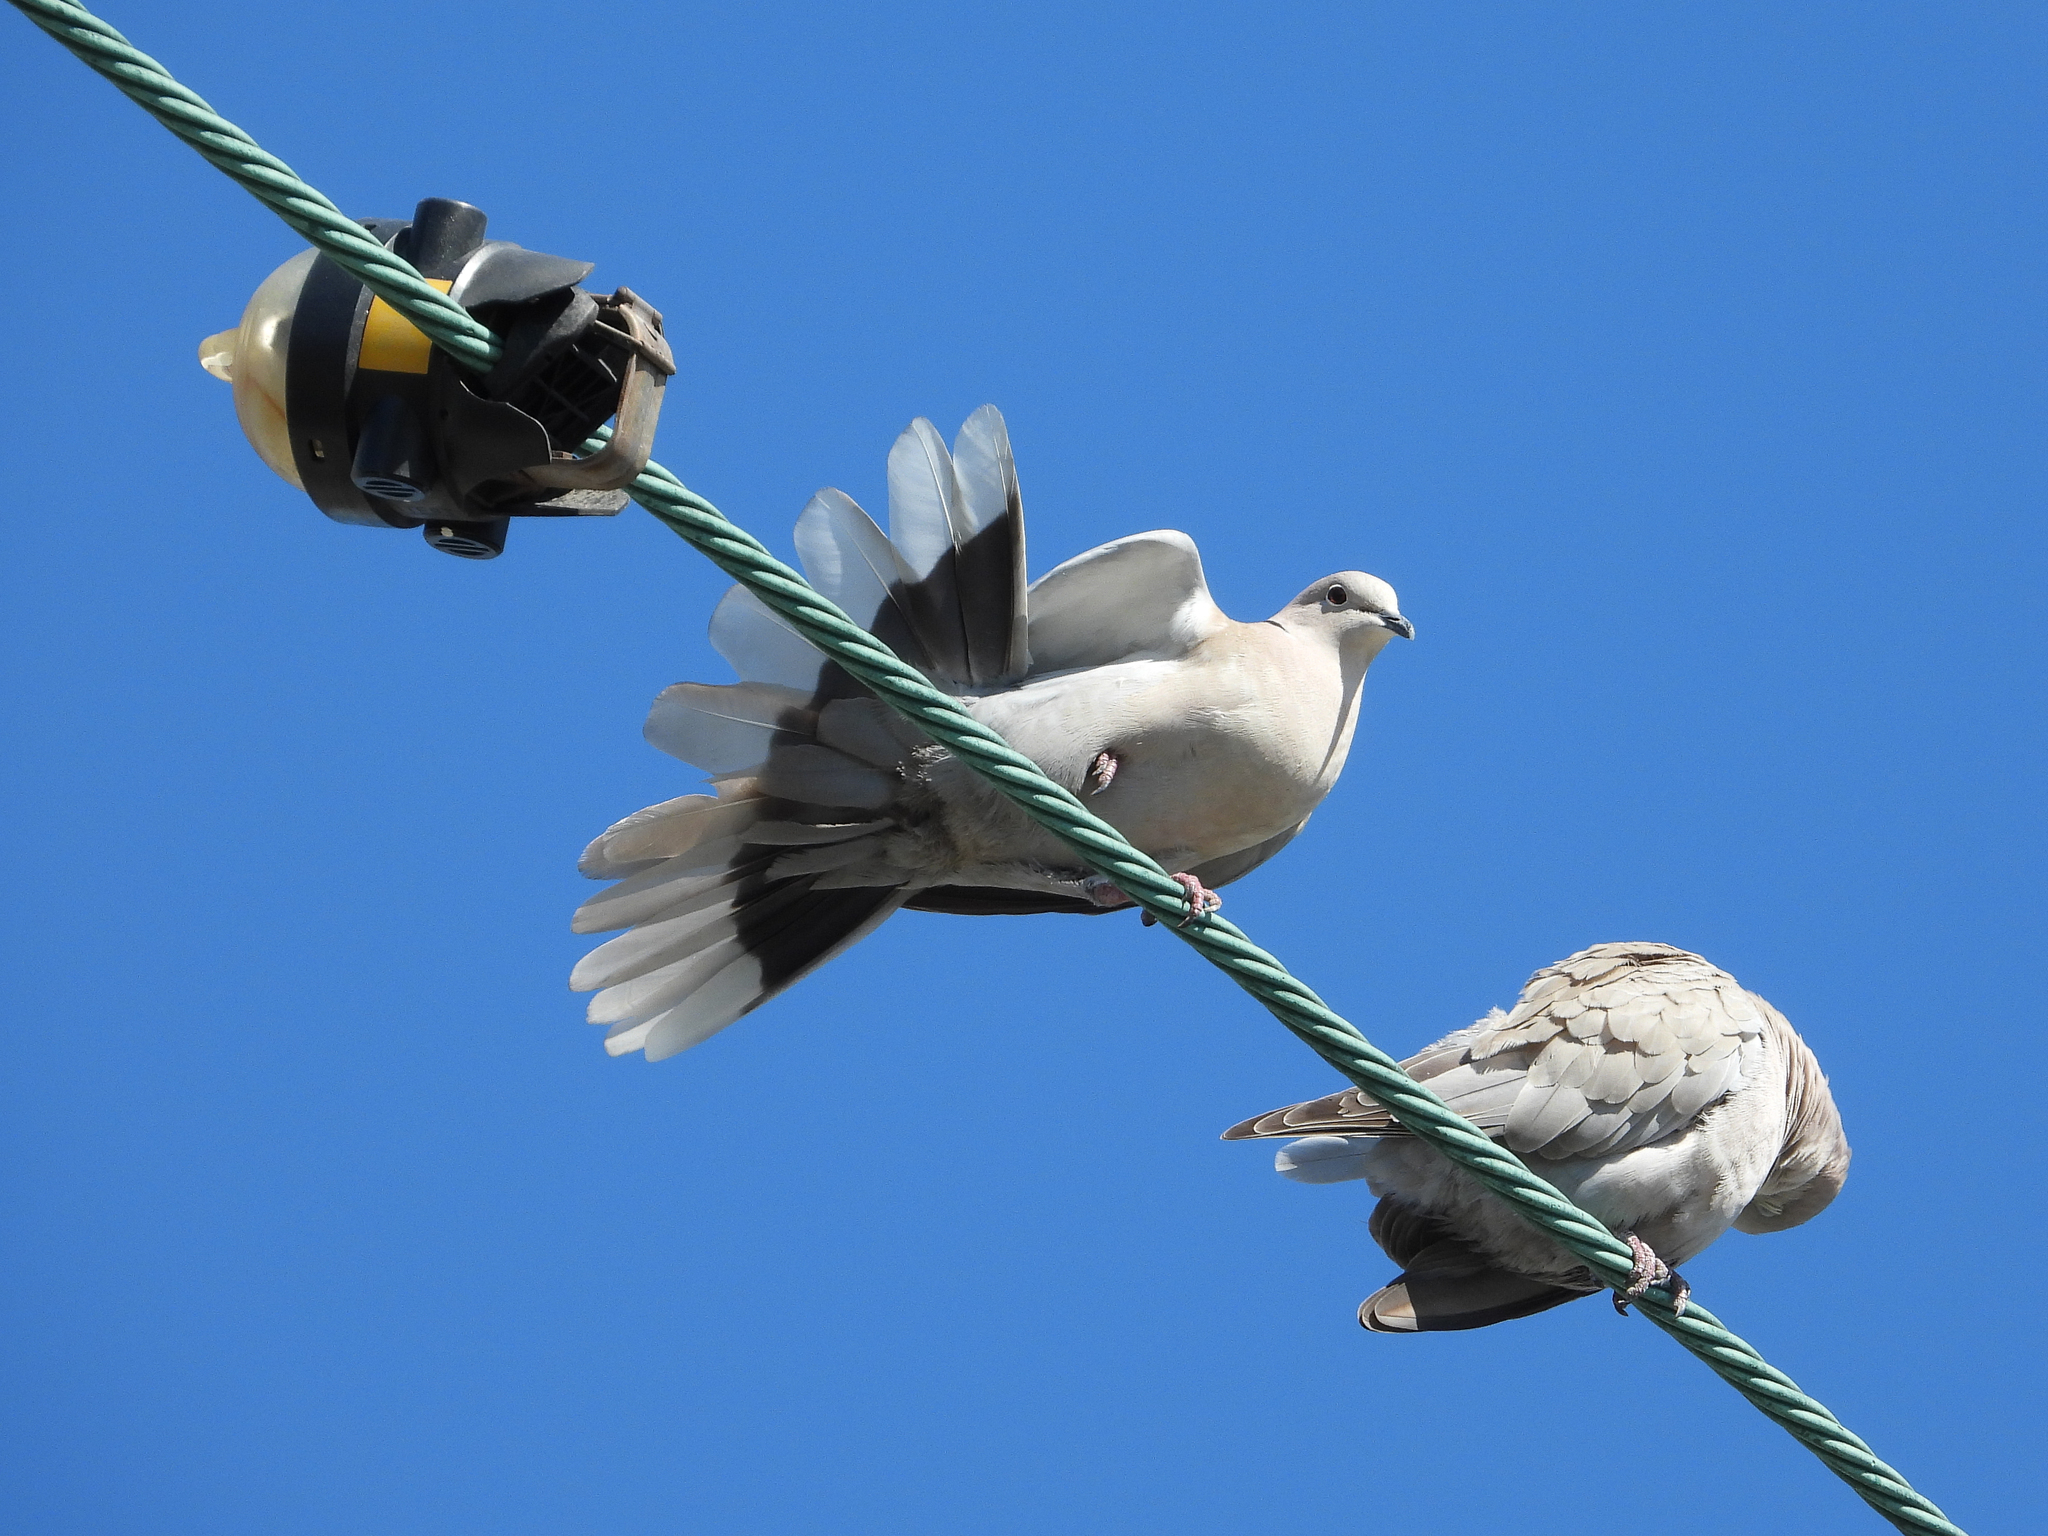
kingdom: Animalia
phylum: Chordata
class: Aves
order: Columbiformes
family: Columbidae
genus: Streptopelia
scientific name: Streptopelia decaocto
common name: Eurasian collared dove
